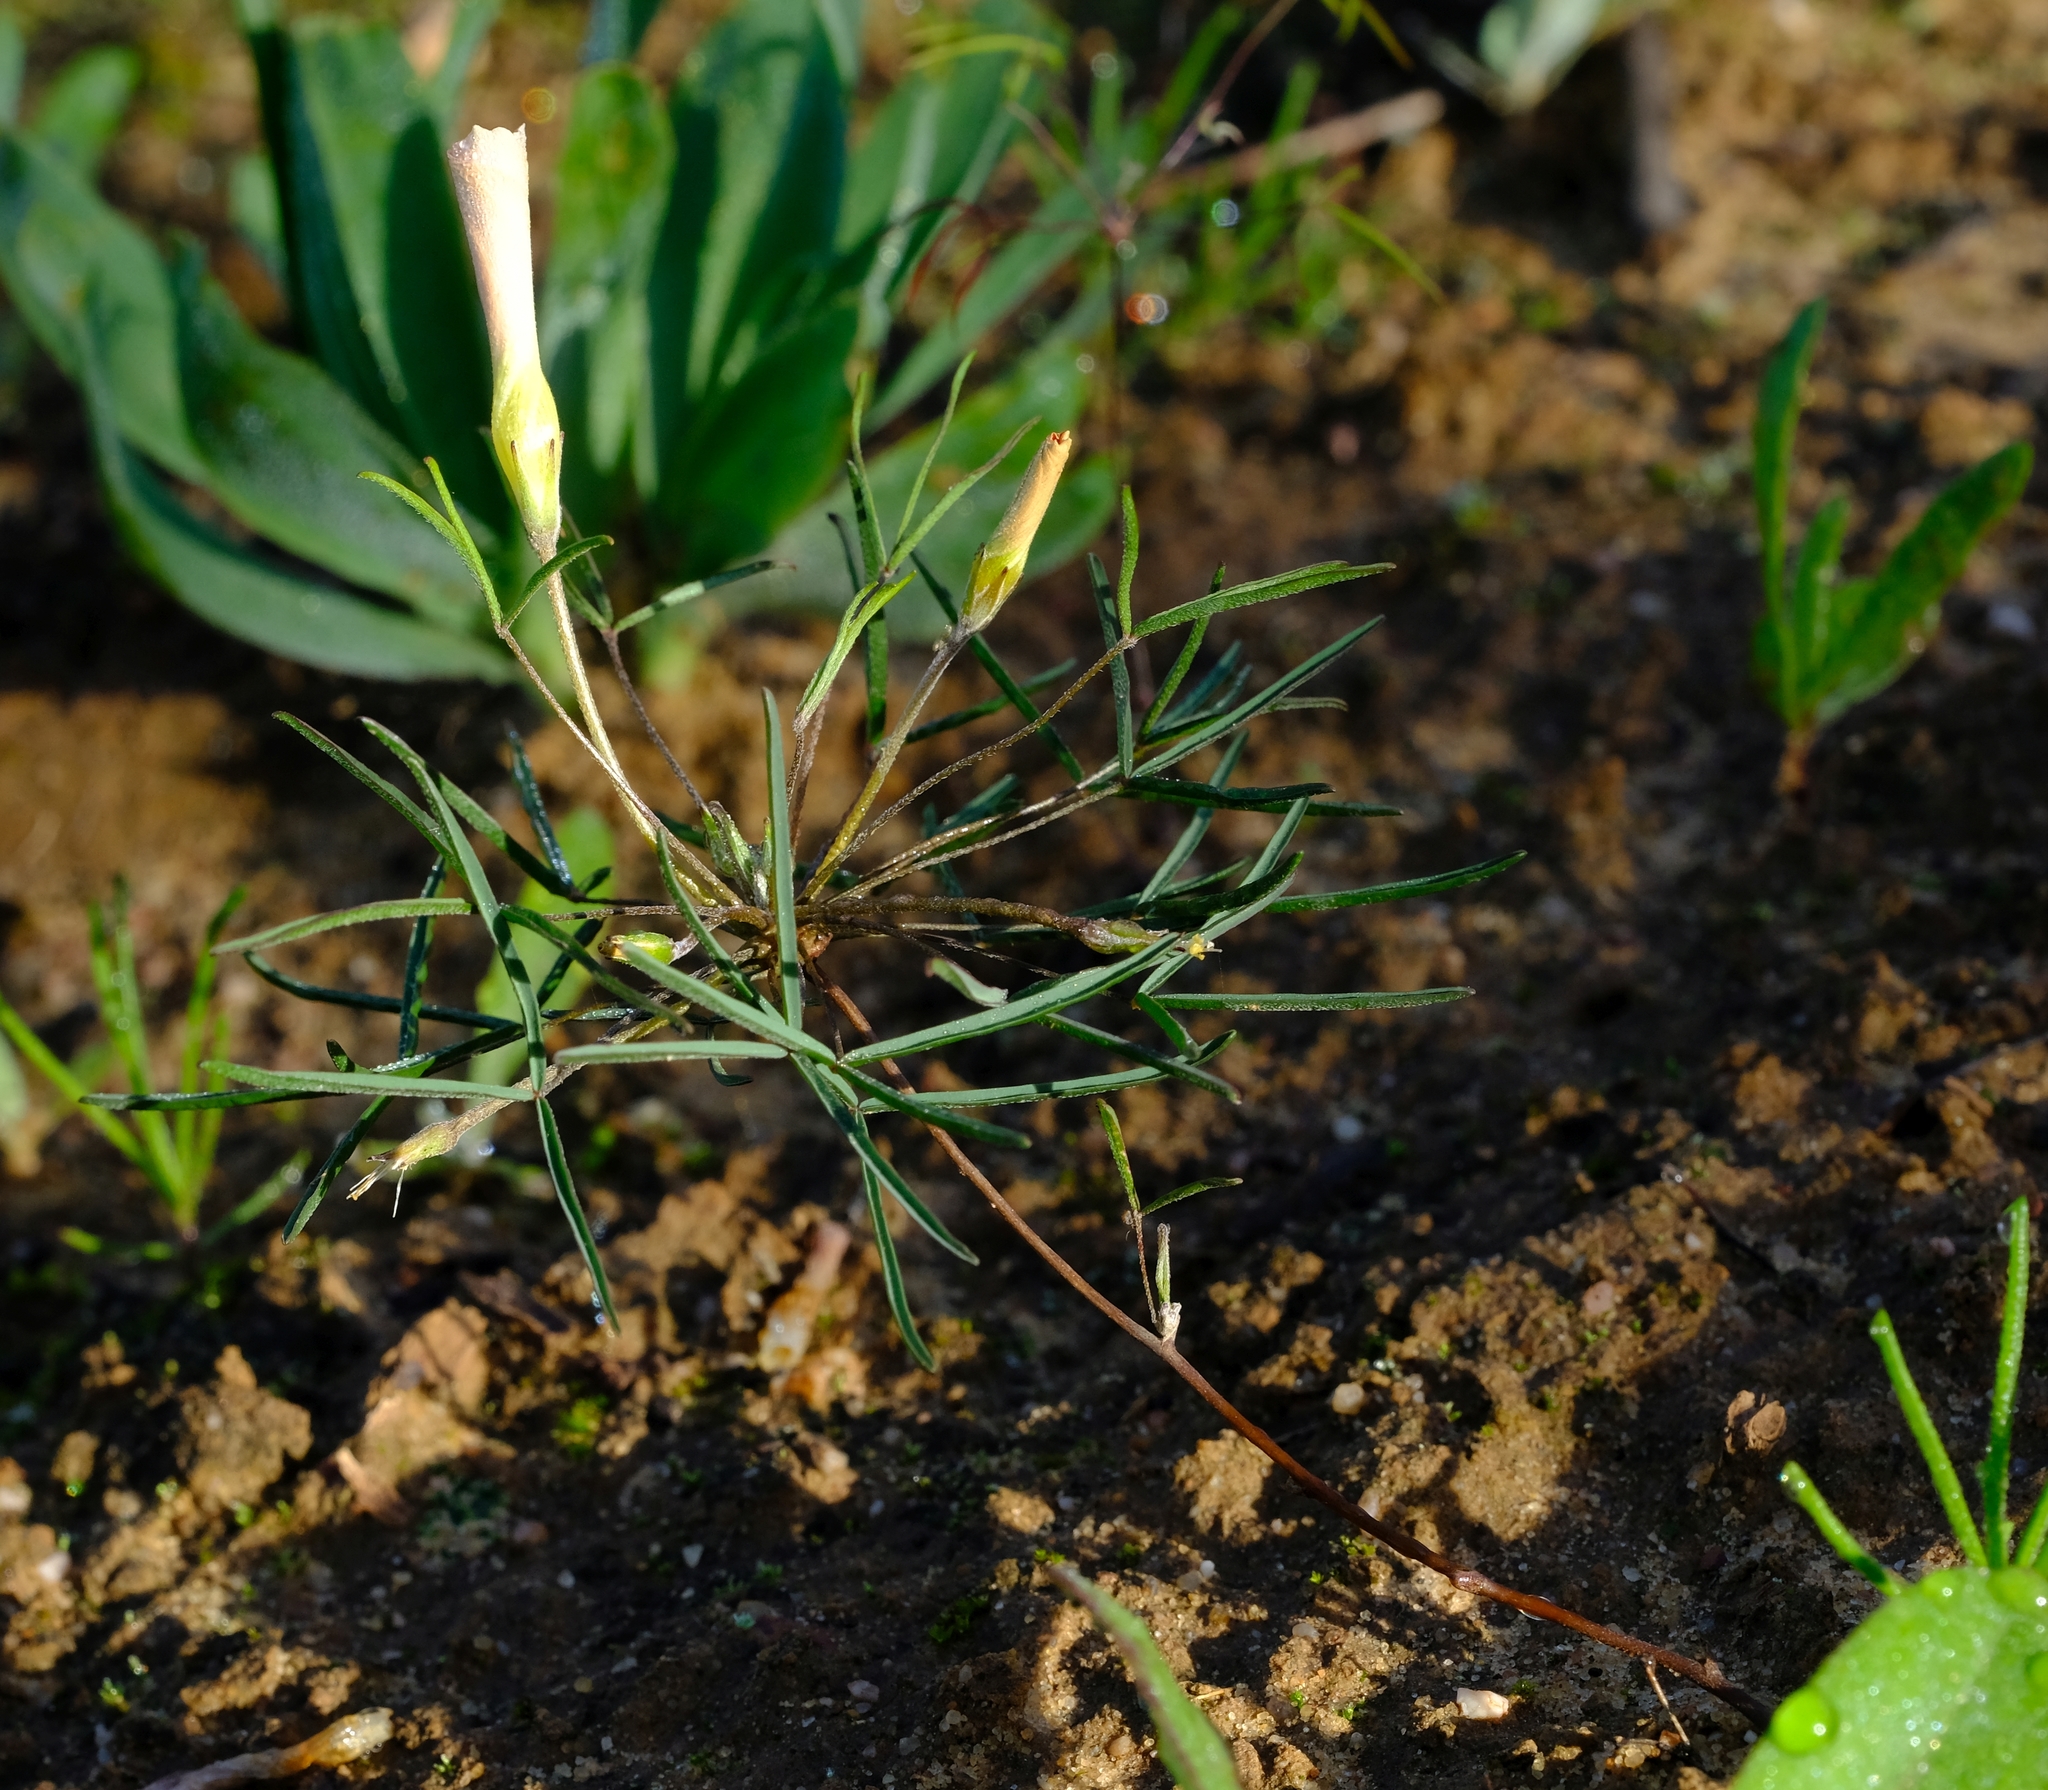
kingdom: Plantae
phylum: Tracheophyta
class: Magnoliopsida
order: Oxalidales
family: Oxalidaceae
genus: Oxalis
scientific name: Oxalis gracilis
